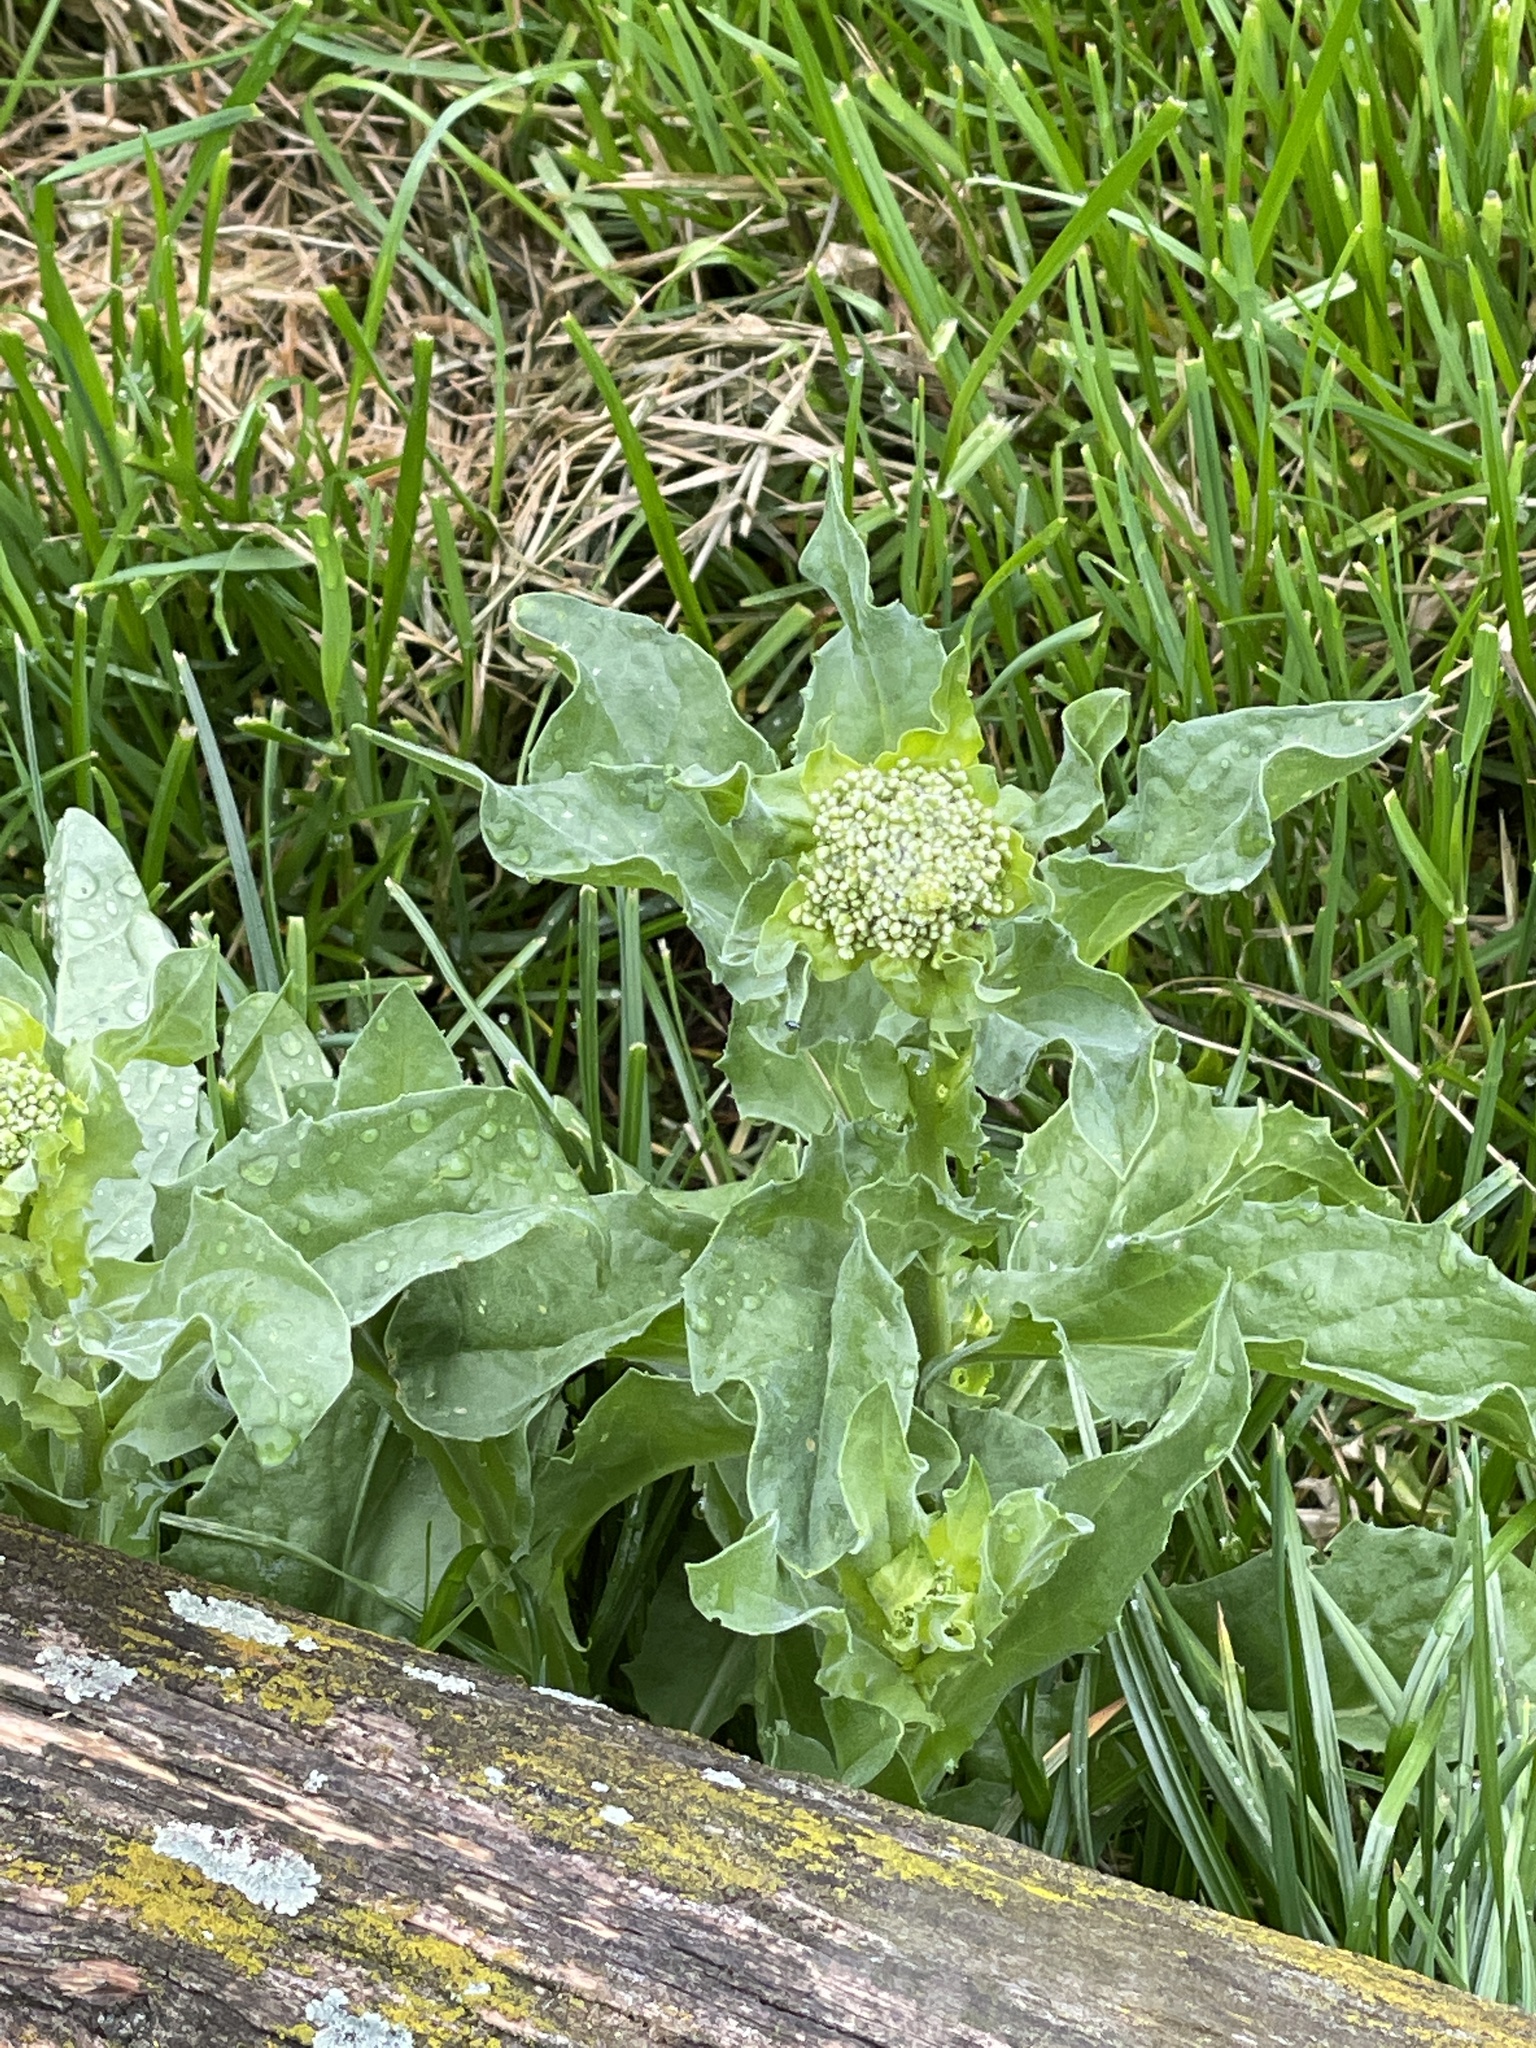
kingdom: Plantae
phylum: Tracheophyta
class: Magnoliopsida
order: Brassicales
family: Brassicaceae
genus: Lepidium
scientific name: Lepidium draba
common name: Hoary cress
